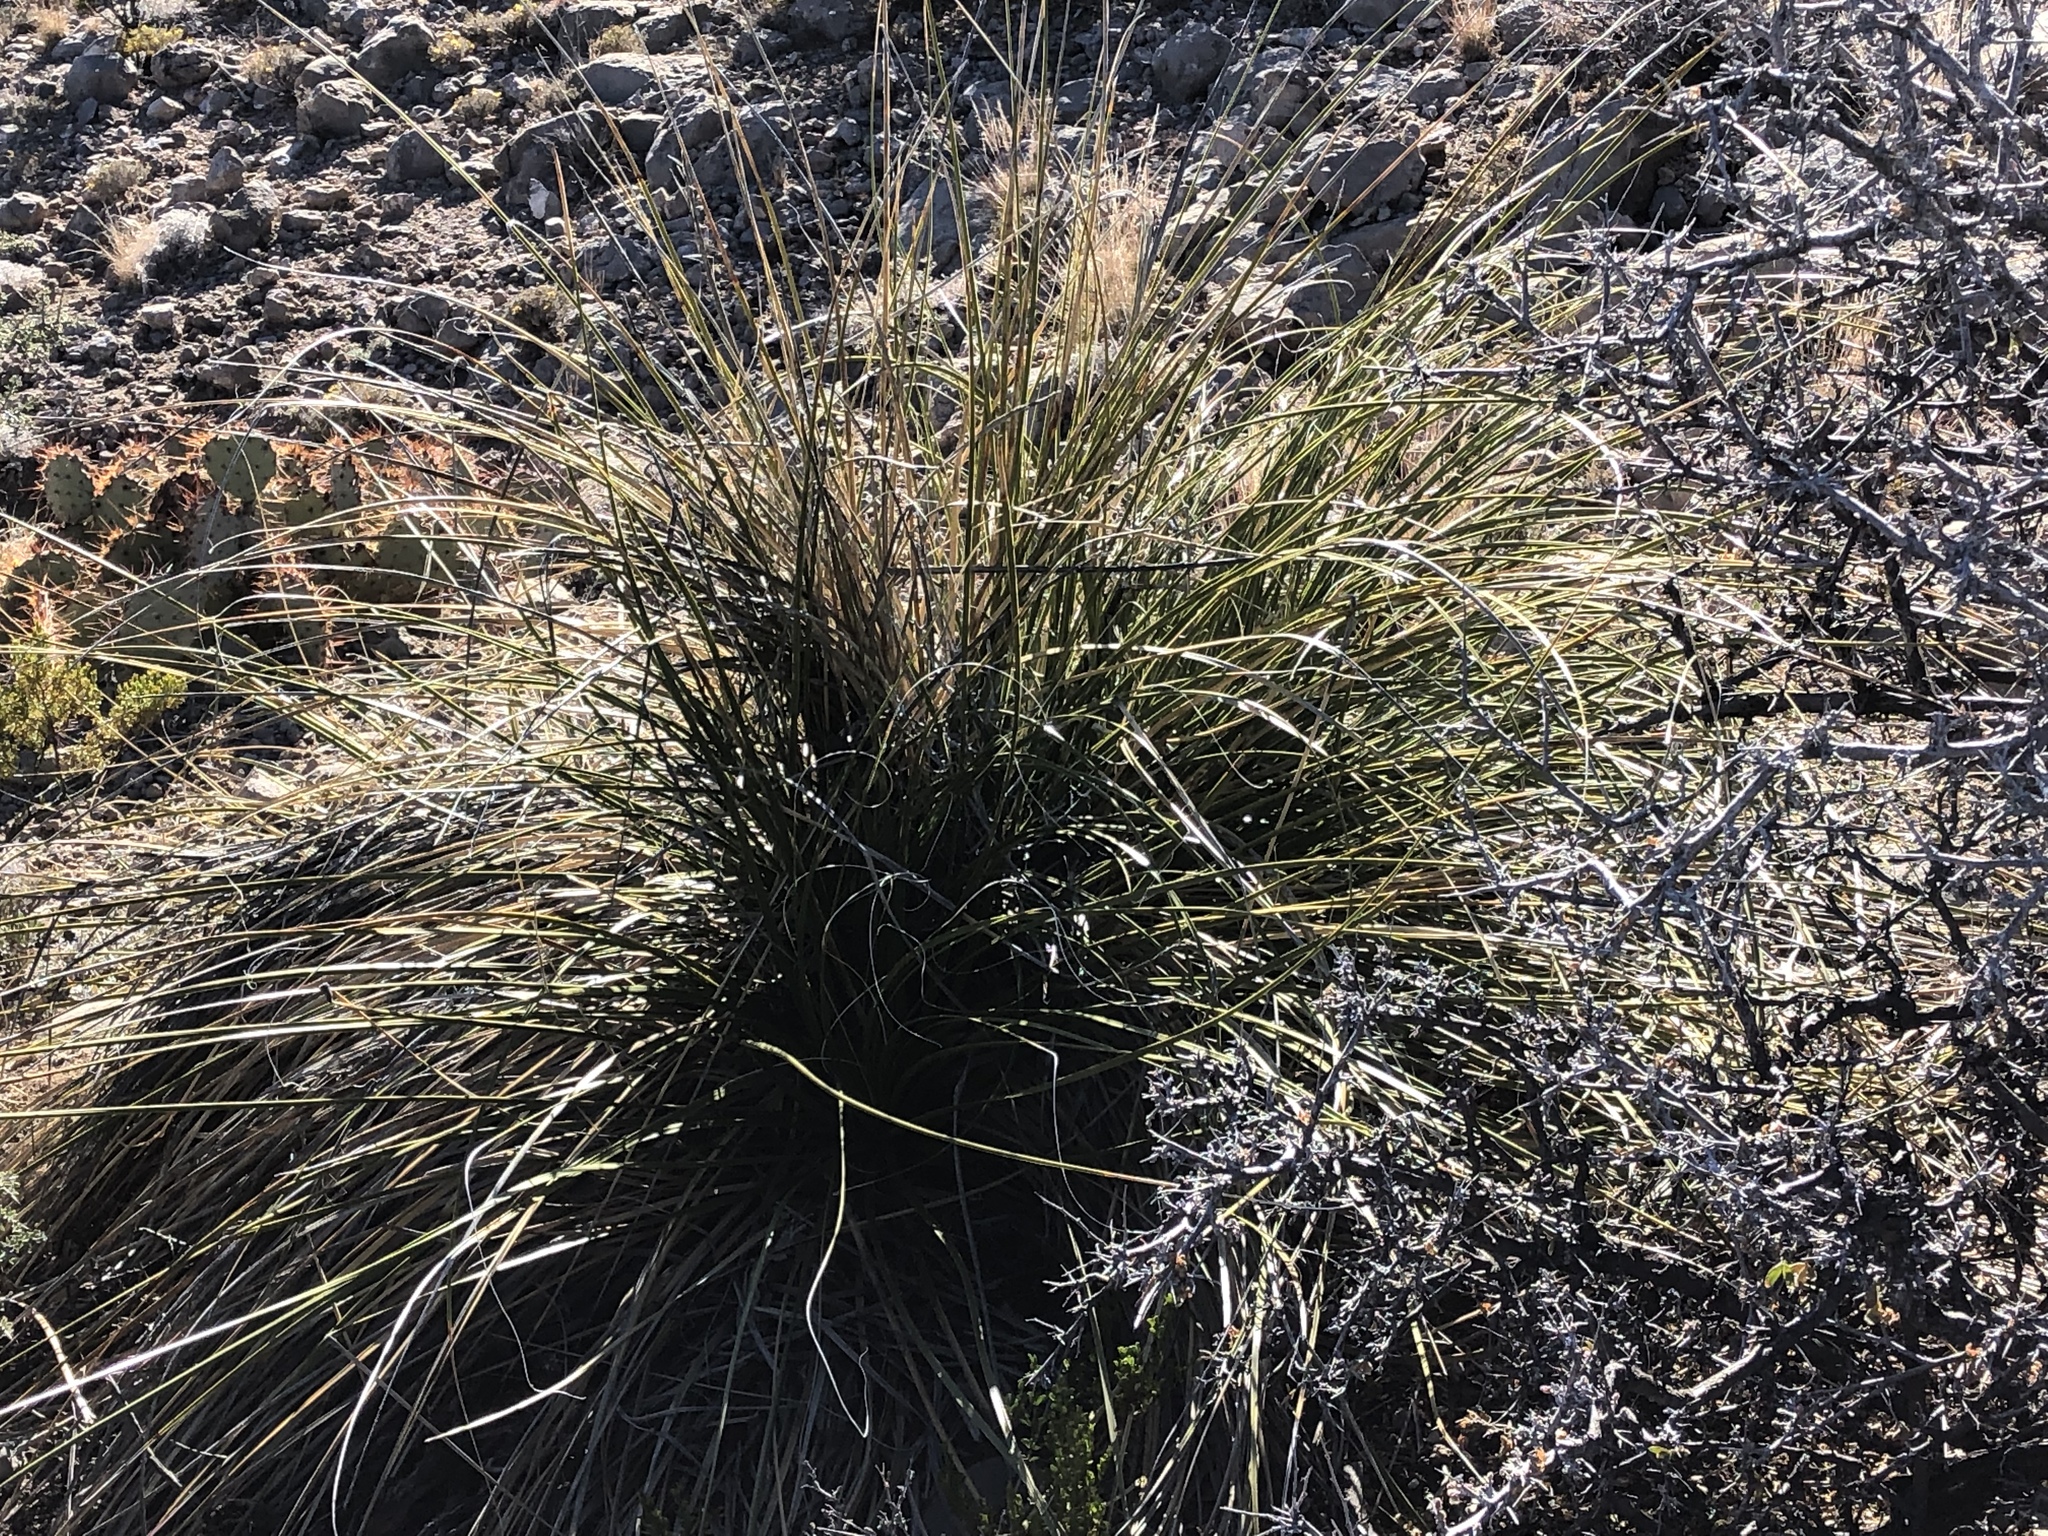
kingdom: Plantae
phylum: Tracheophyta
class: Liliopsida
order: Asparagales
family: Asparagaceae
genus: Nolina
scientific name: Nolina microcarpa
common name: Bear-grass
